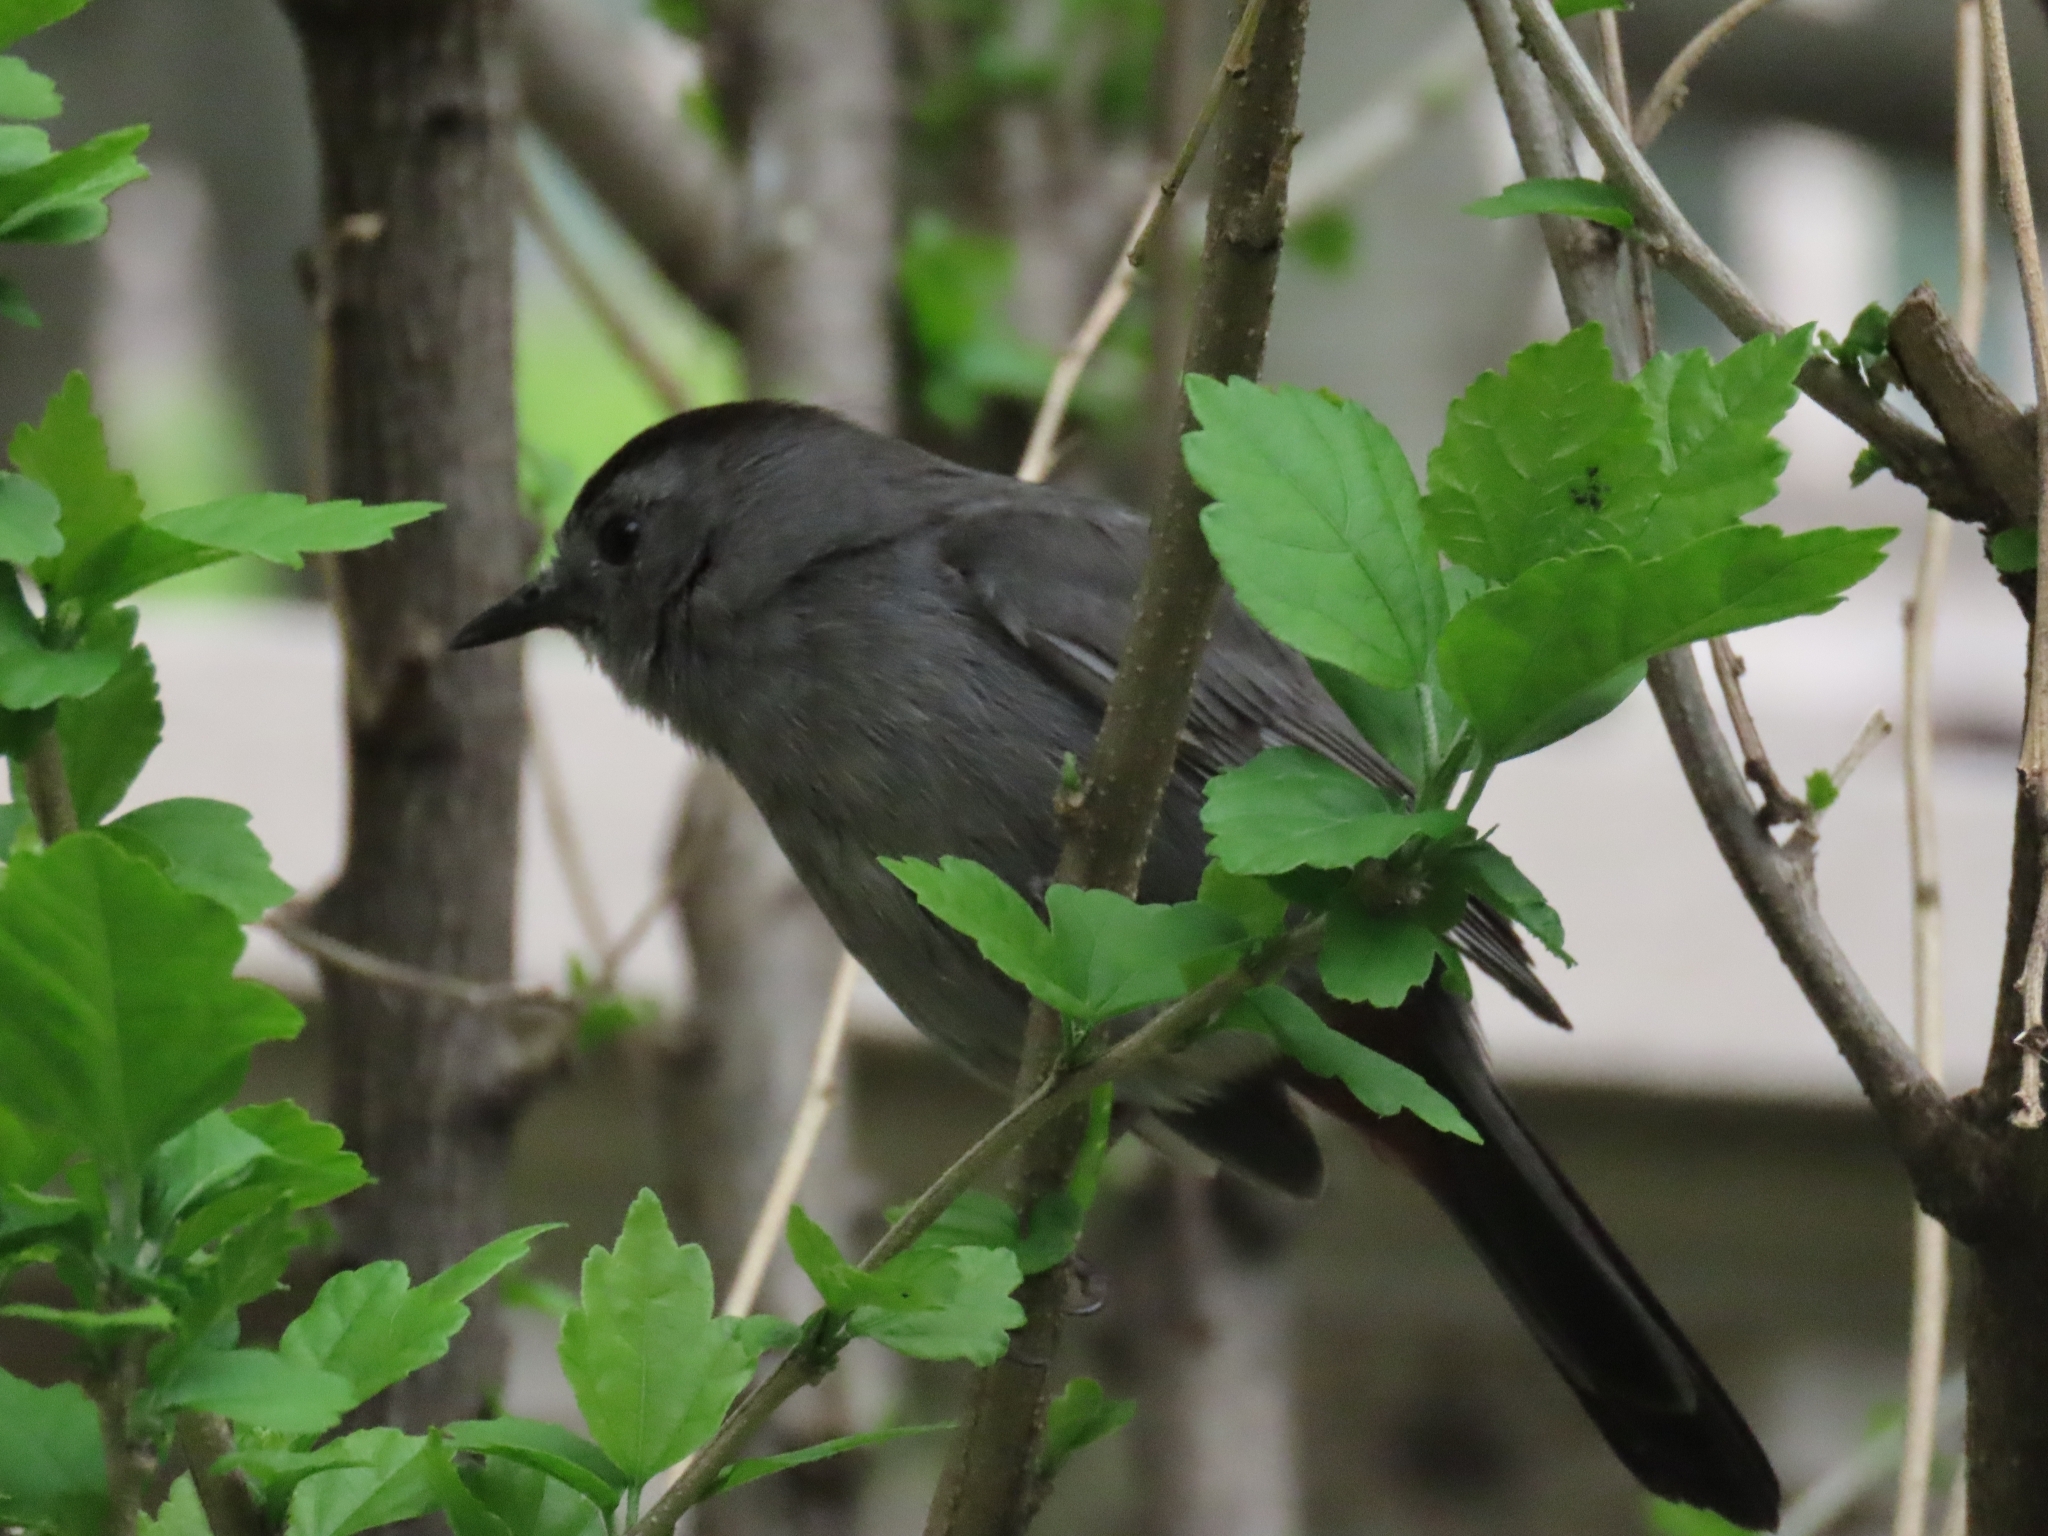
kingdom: Animalia
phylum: Chordata
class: Aves
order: Passeriformes
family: Mimidae
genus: Dumetella
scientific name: Dumetella carolinensis
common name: Gray catbird
